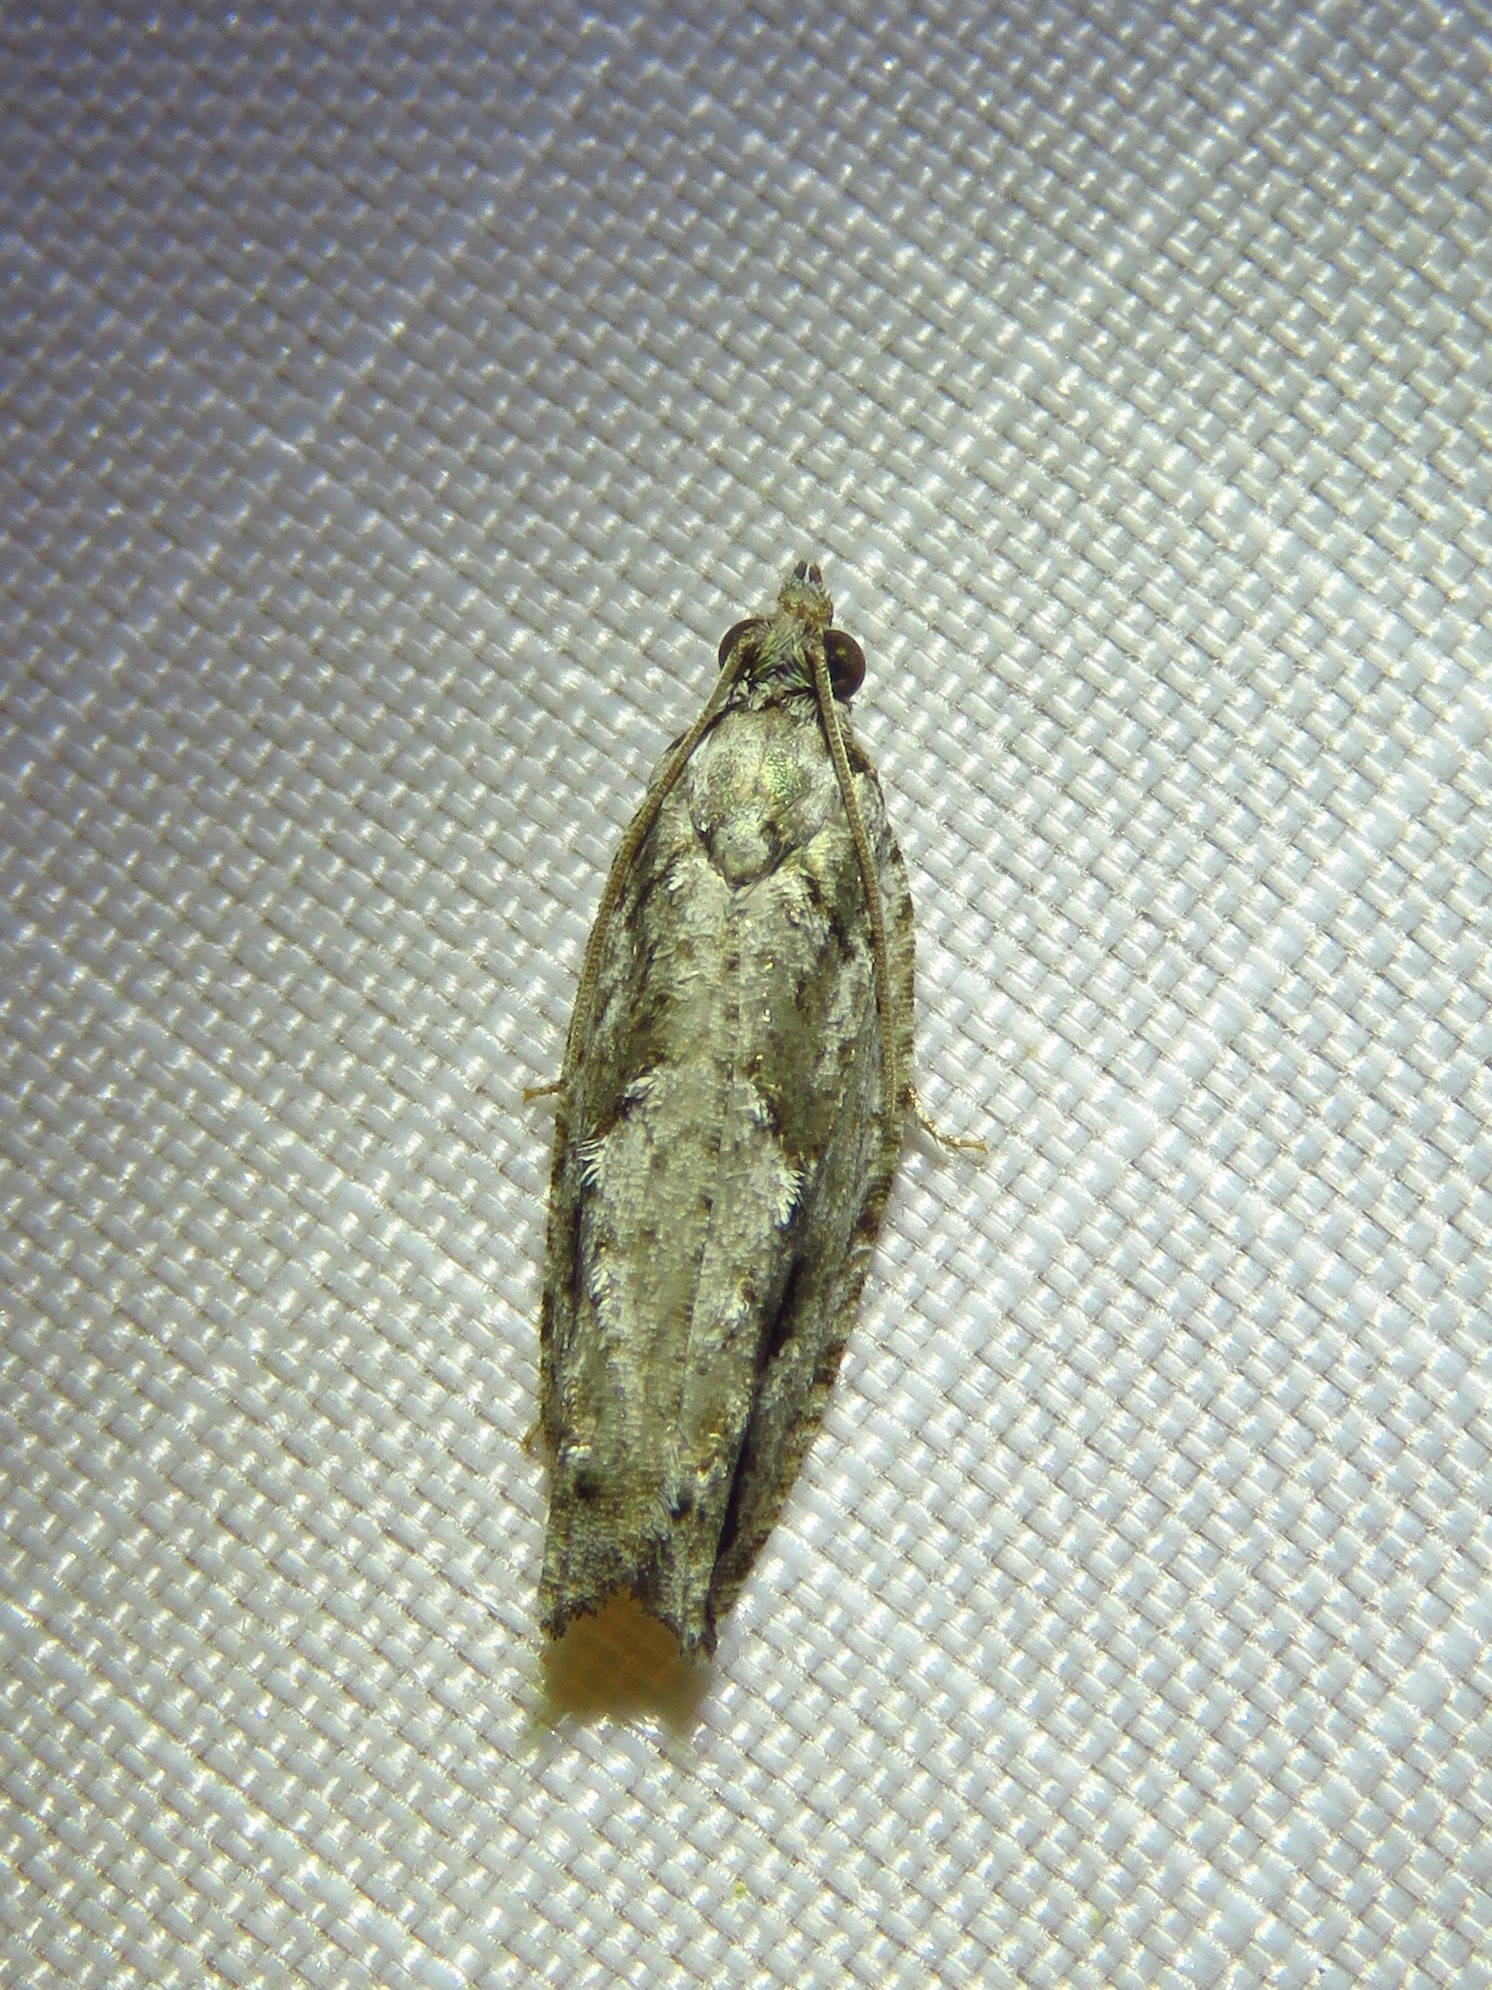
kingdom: Animalia
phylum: Arthropoda
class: Insecta
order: Lepidoptera
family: Tortricidae
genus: Gretchena
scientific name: Gretchena bolliana
